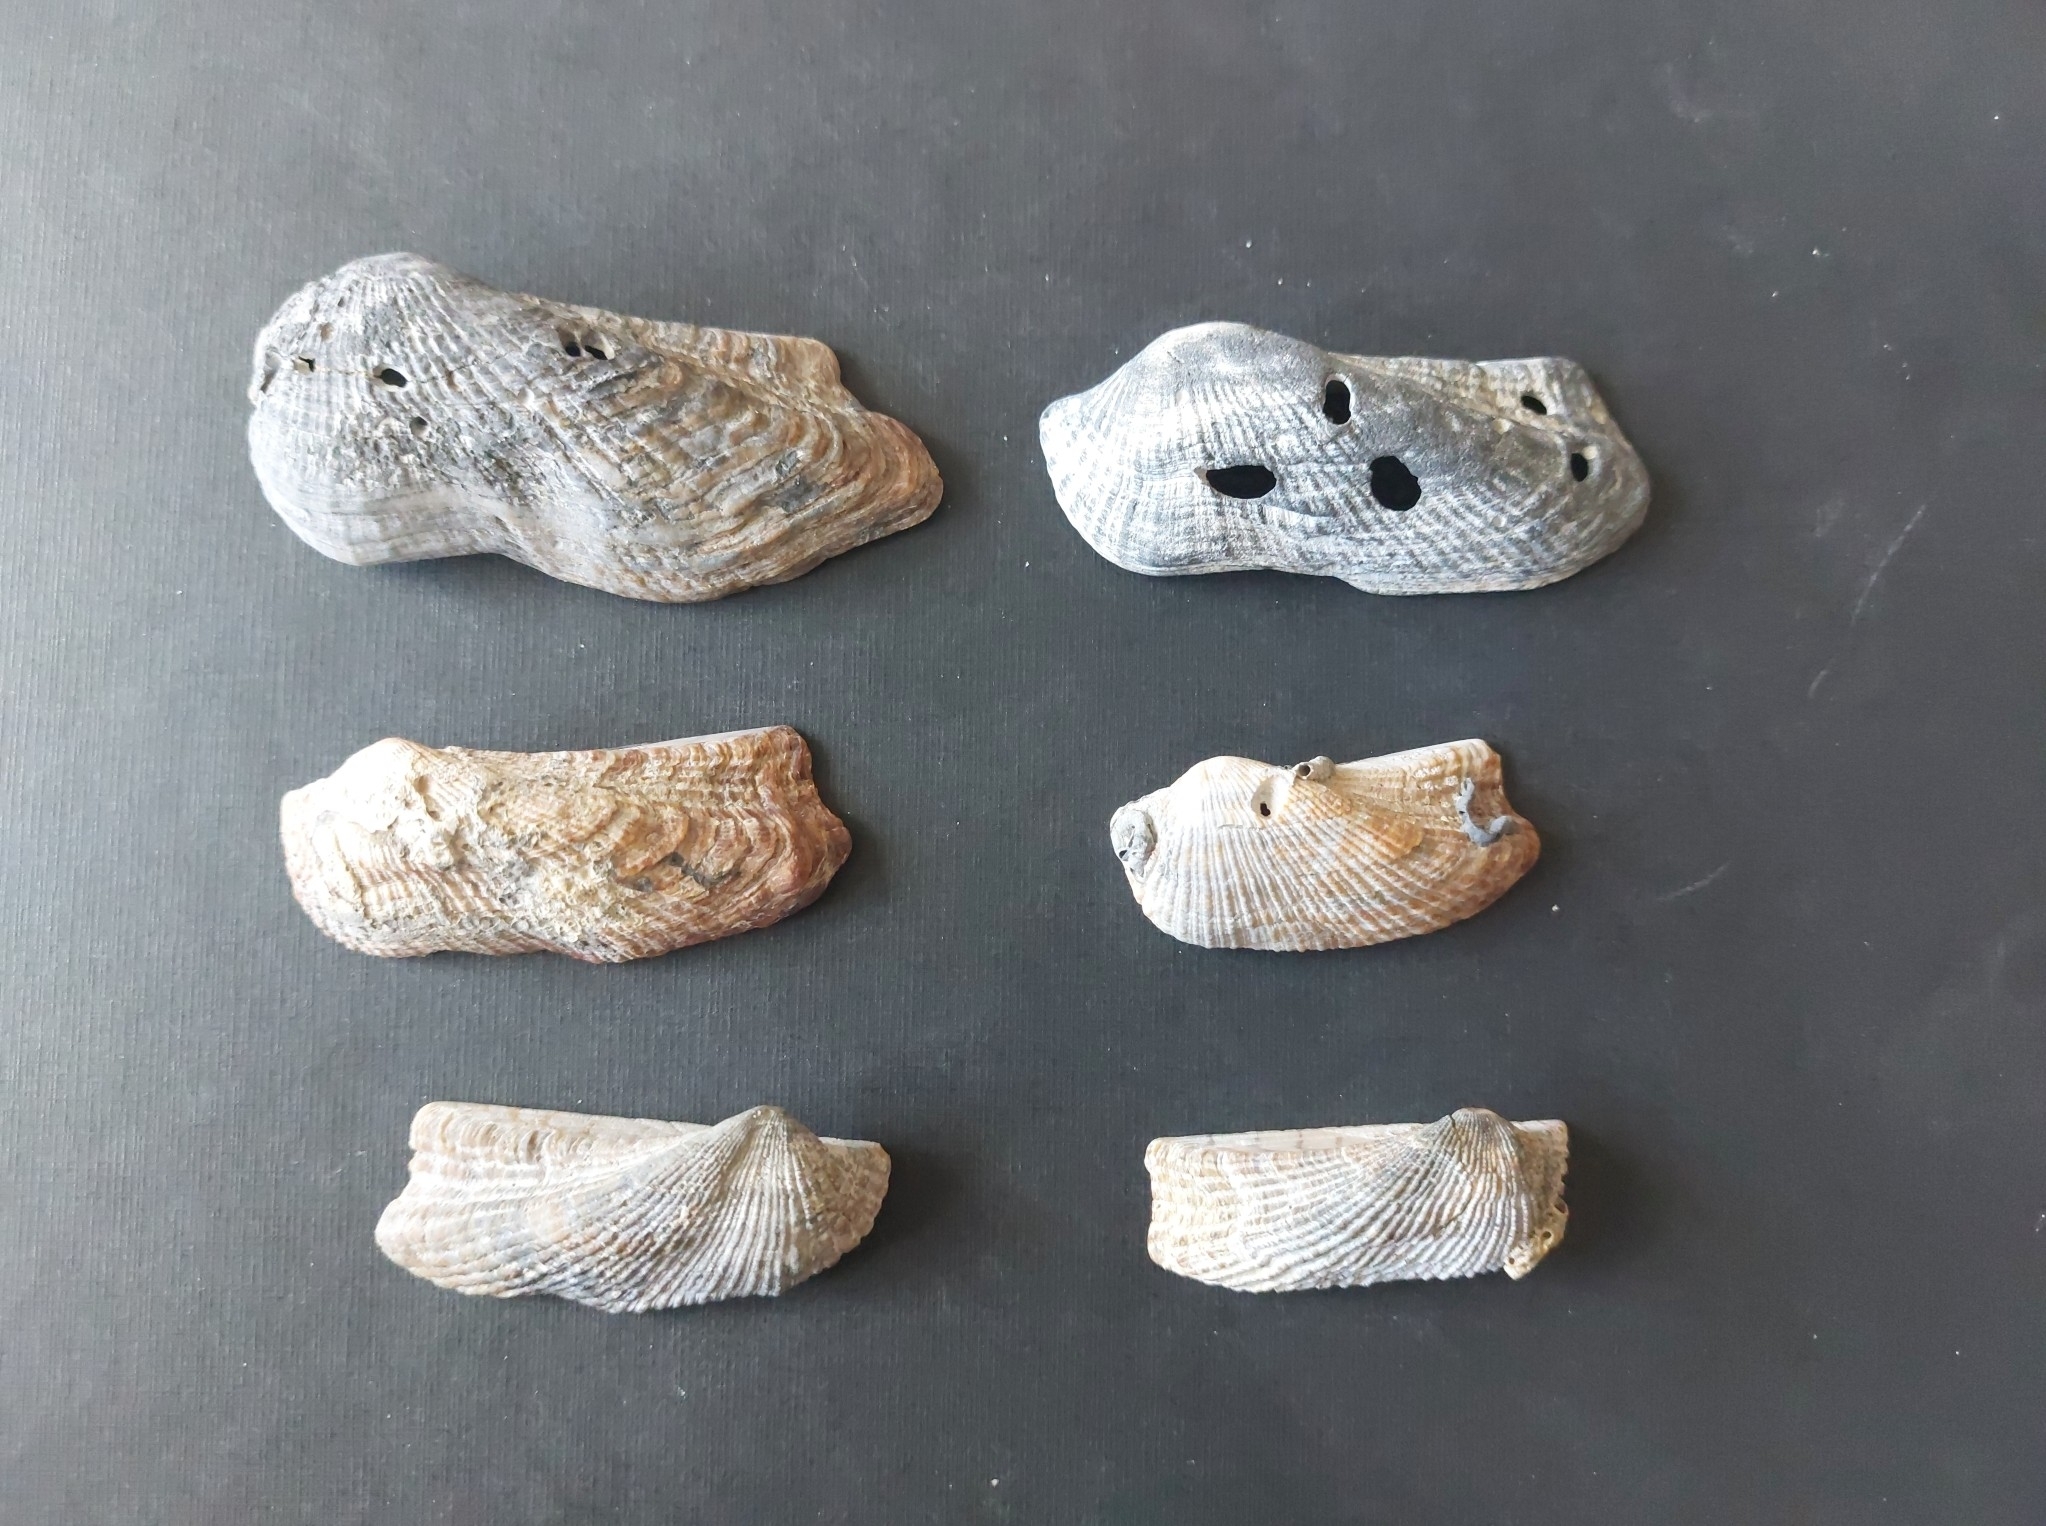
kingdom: Animalia
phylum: Mollusca
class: Bivalvia
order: Arcida
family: Arcidae
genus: Arca
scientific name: Arca noae
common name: Noah's arch
